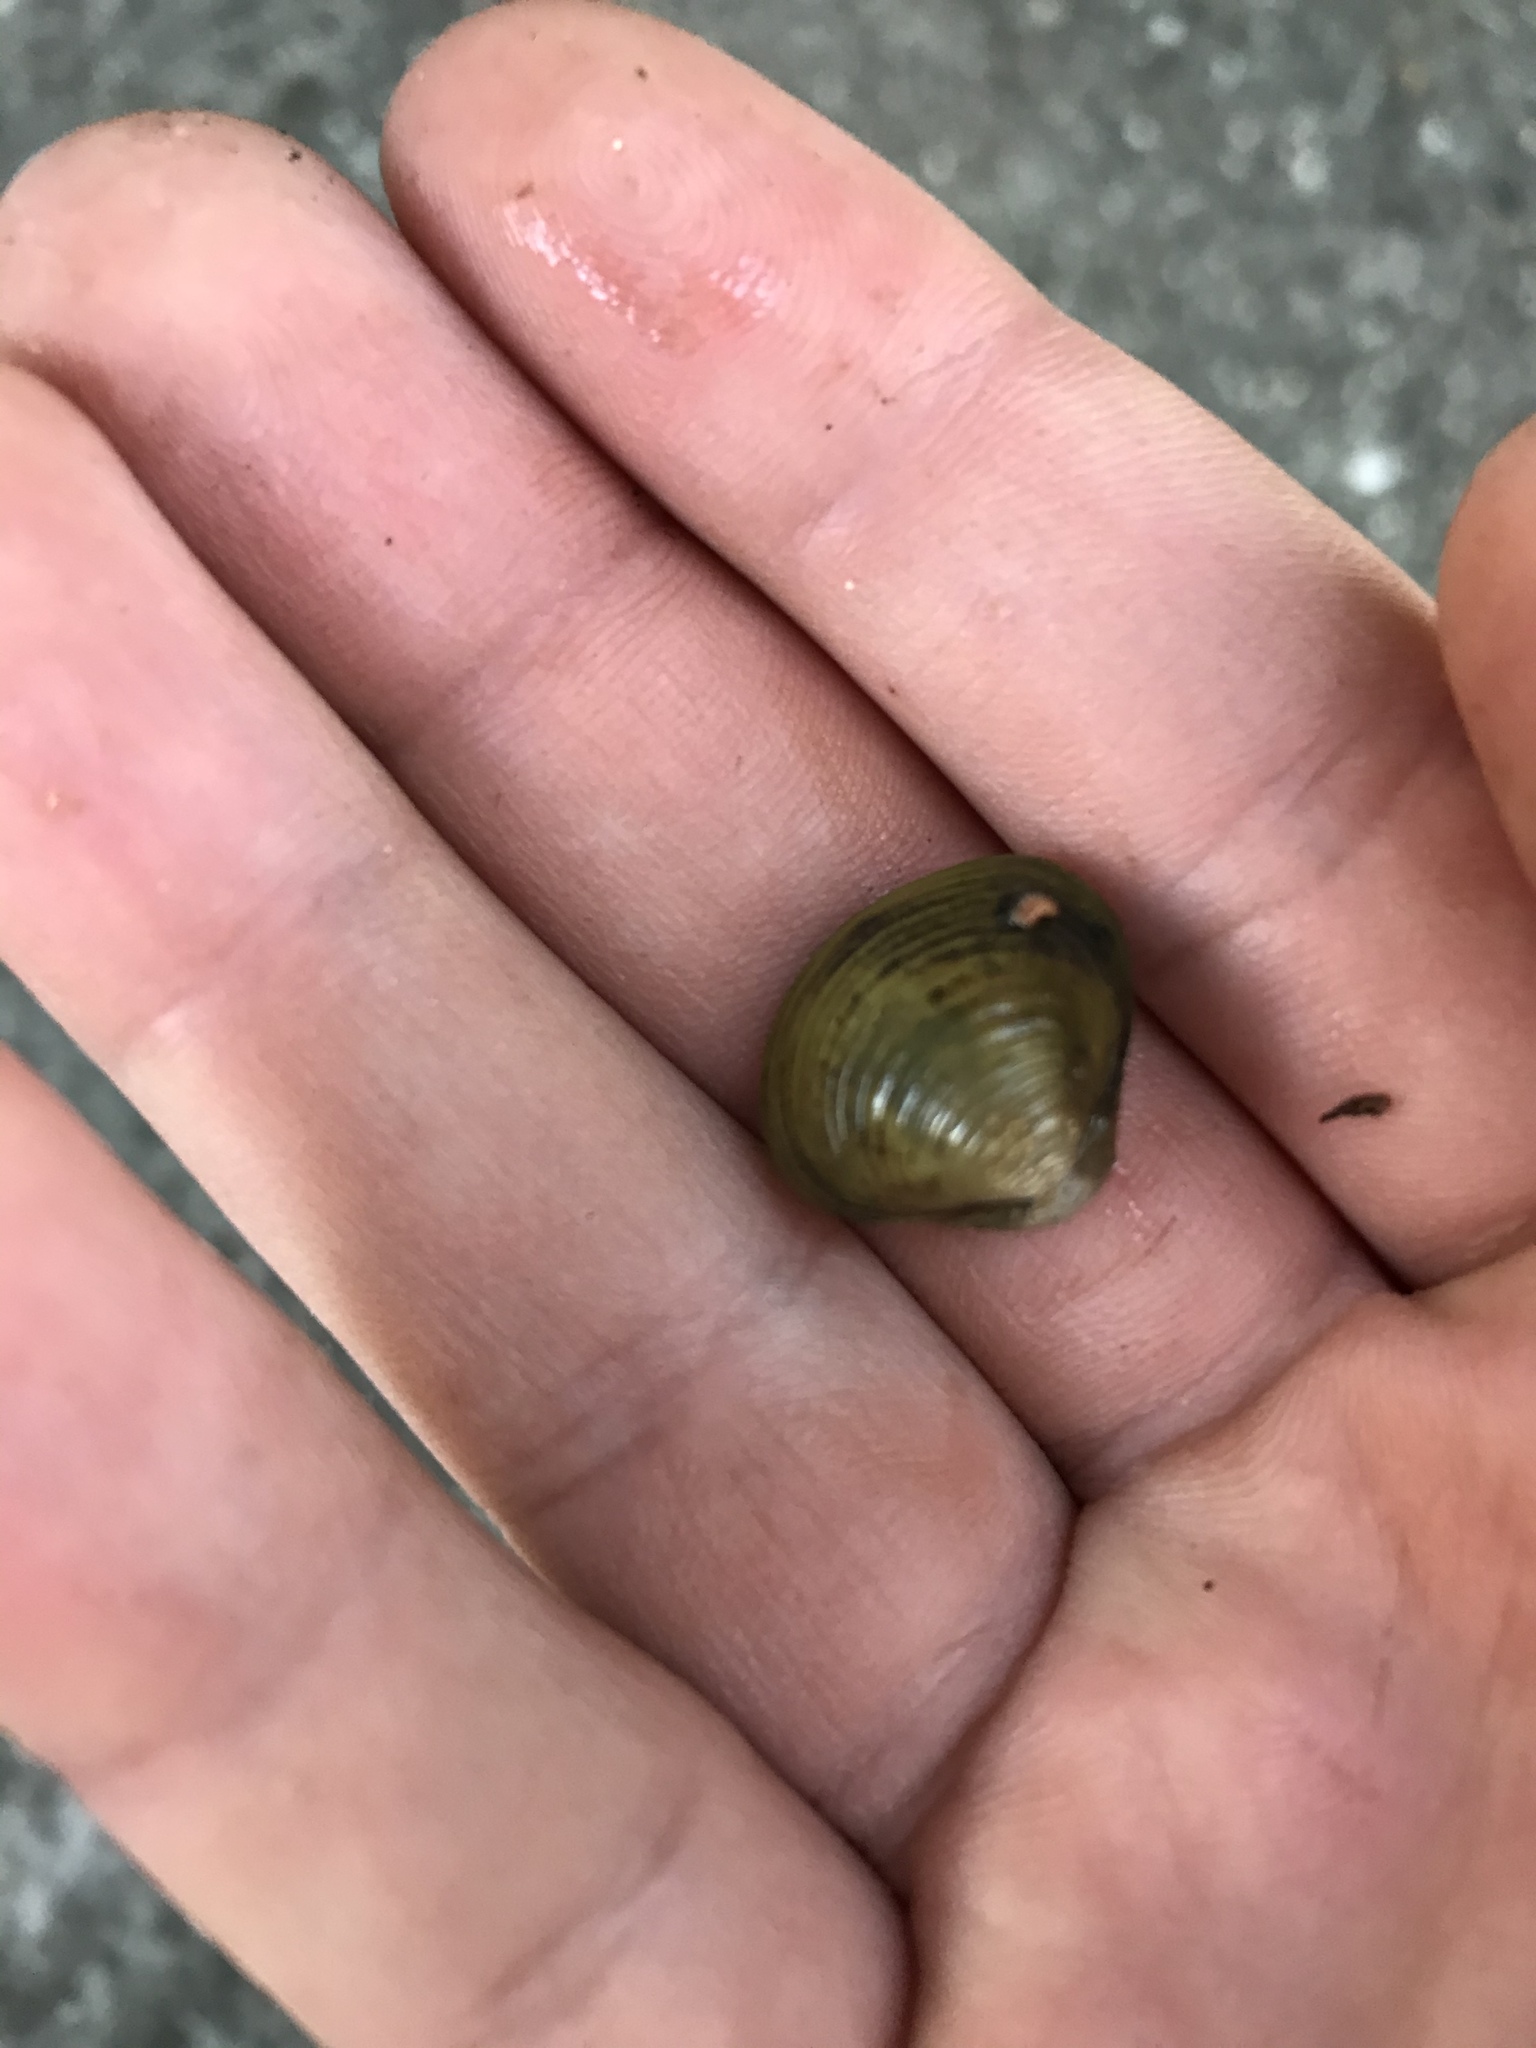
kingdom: Animalia
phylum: Mollusca
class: Bivalvia
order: Venerida
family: Cyrenidae
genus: Corbicula
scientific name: Corbicula fluminea
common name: Asian clam
